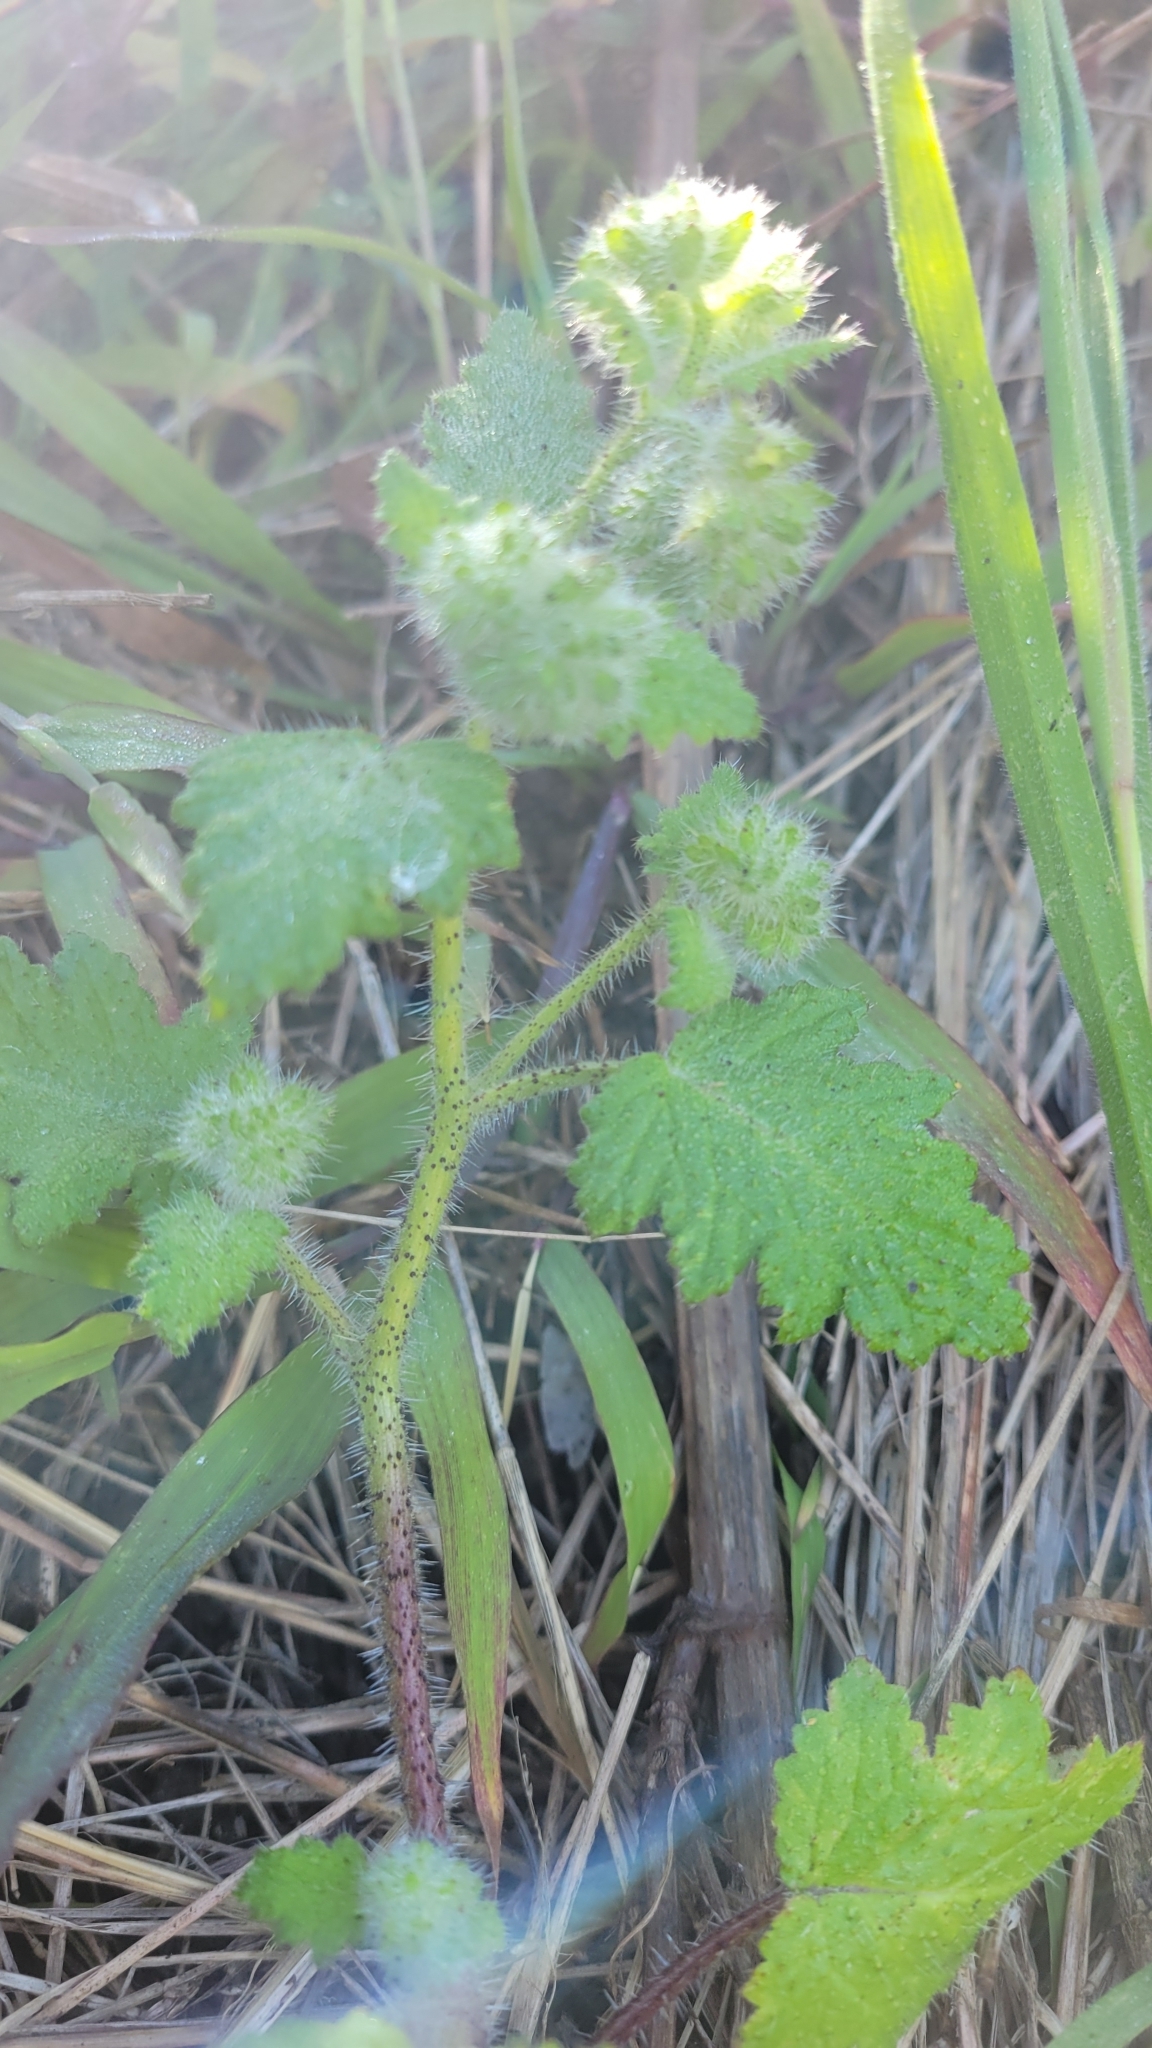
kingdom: Plantae
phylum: Tracheophyta
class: Magnoliopsida
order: Boraginales
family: Hydrophyllaceae
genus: Phacelia
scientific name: Phacelia malvifolia
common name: Mallow-leaf phacelia
